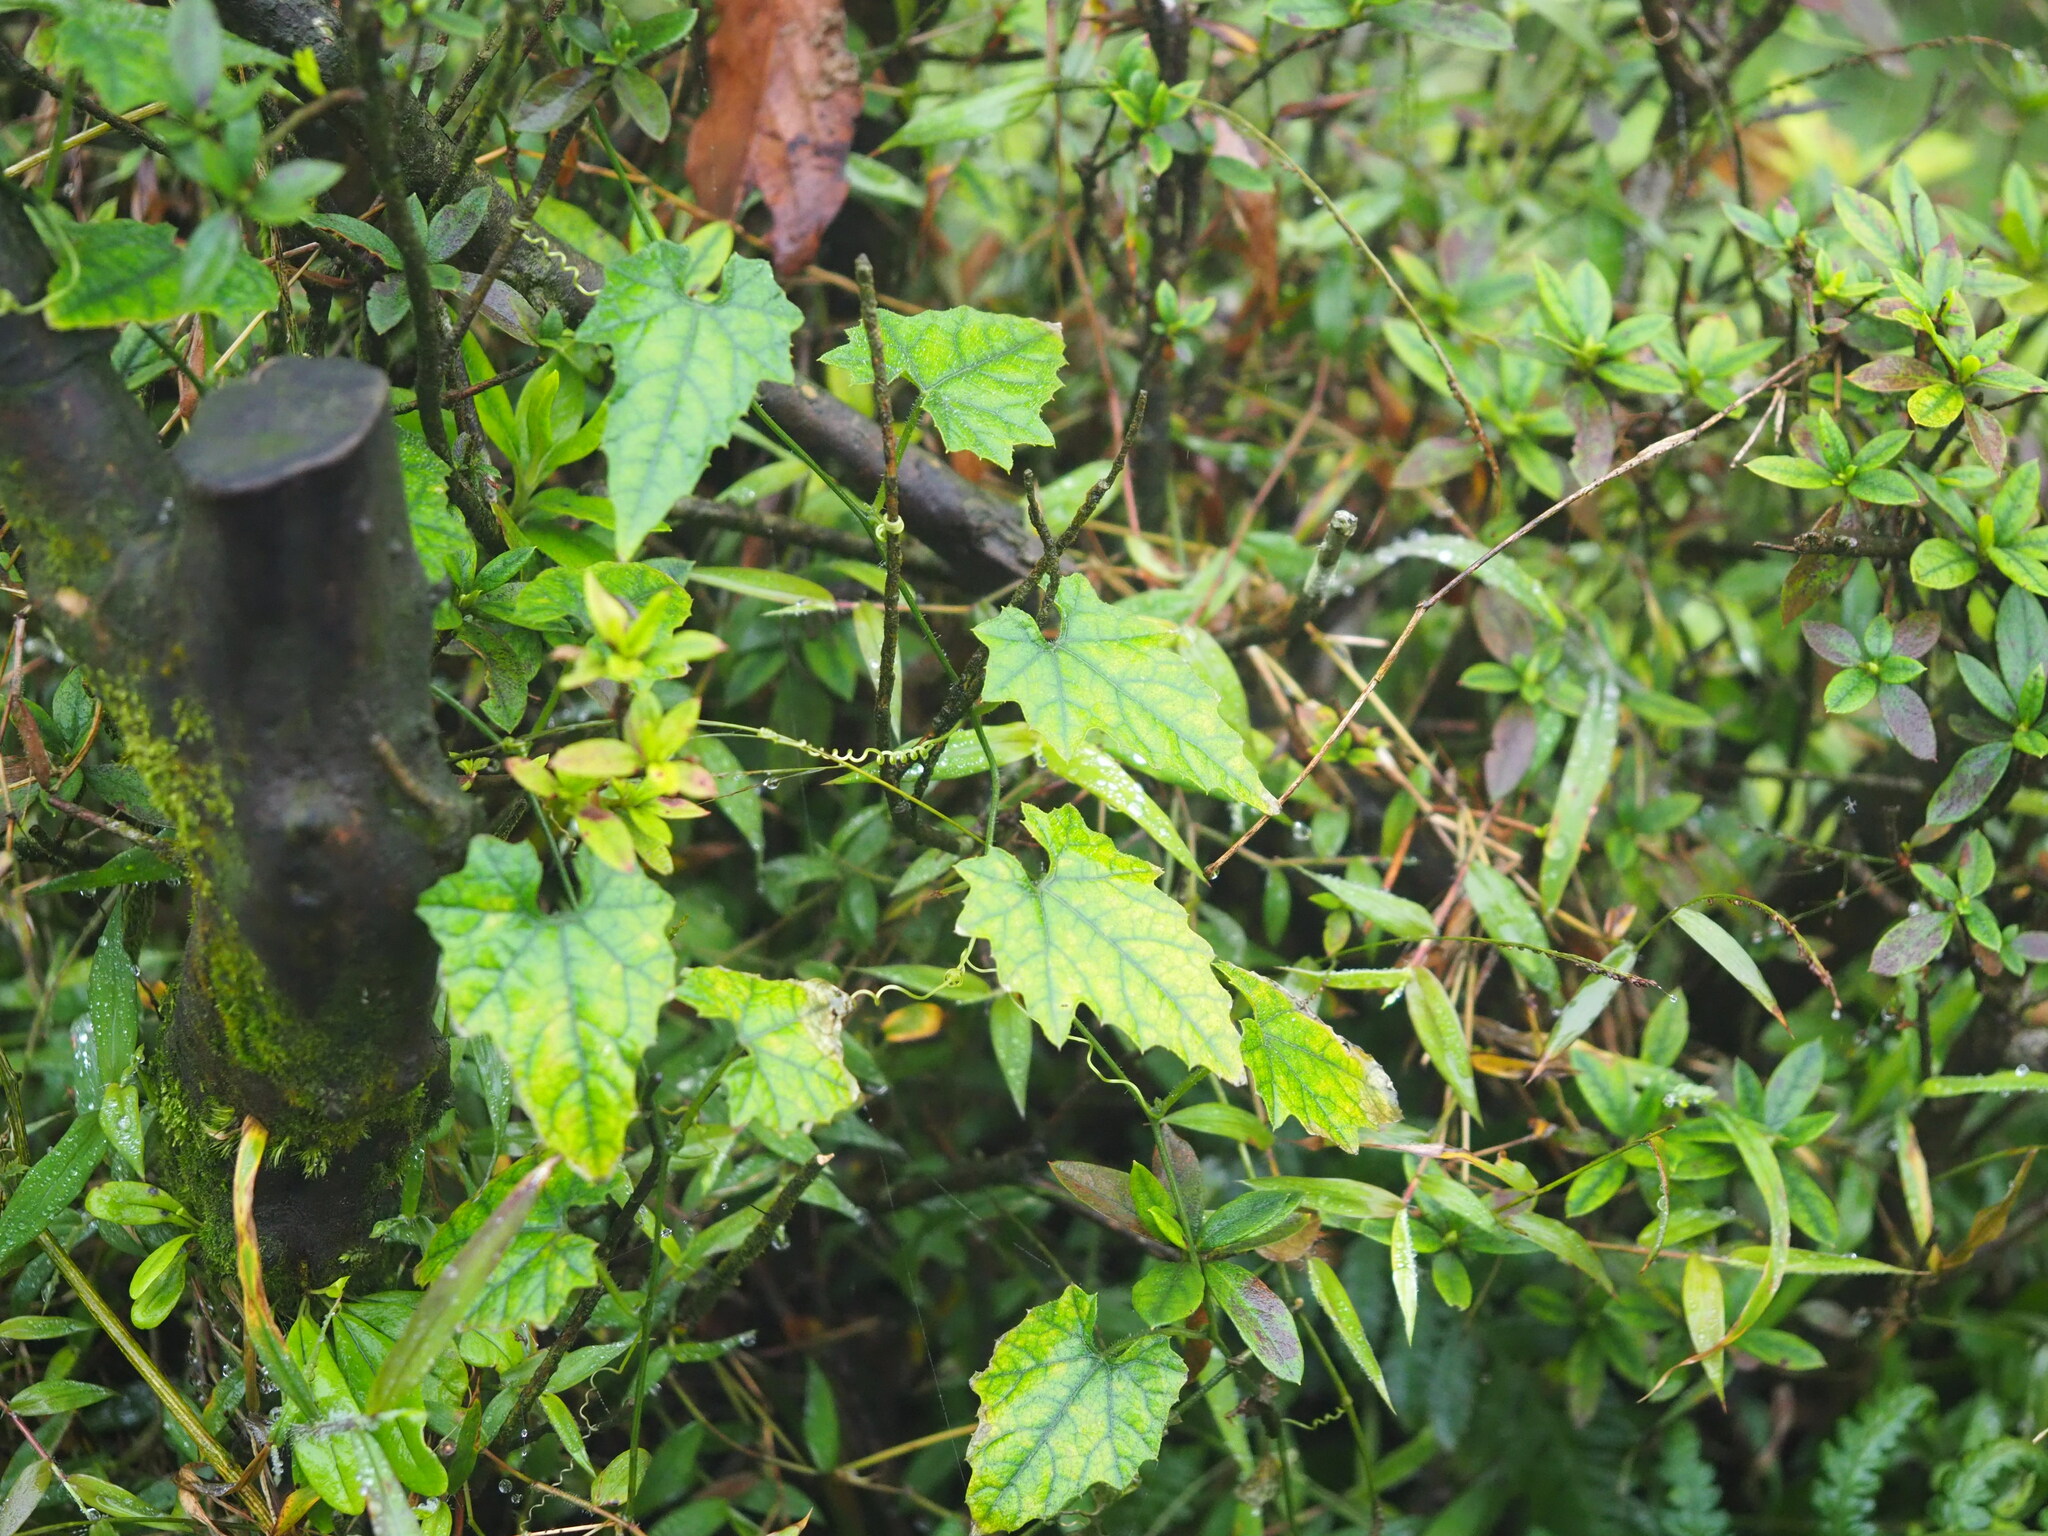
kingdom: Plantae
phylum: Tracheophyta
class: Magnoliopsida
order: Cucurbitales
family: Cucurbitaceae
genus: Trichosanthes
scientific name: Trichosanthes cucumeroides
